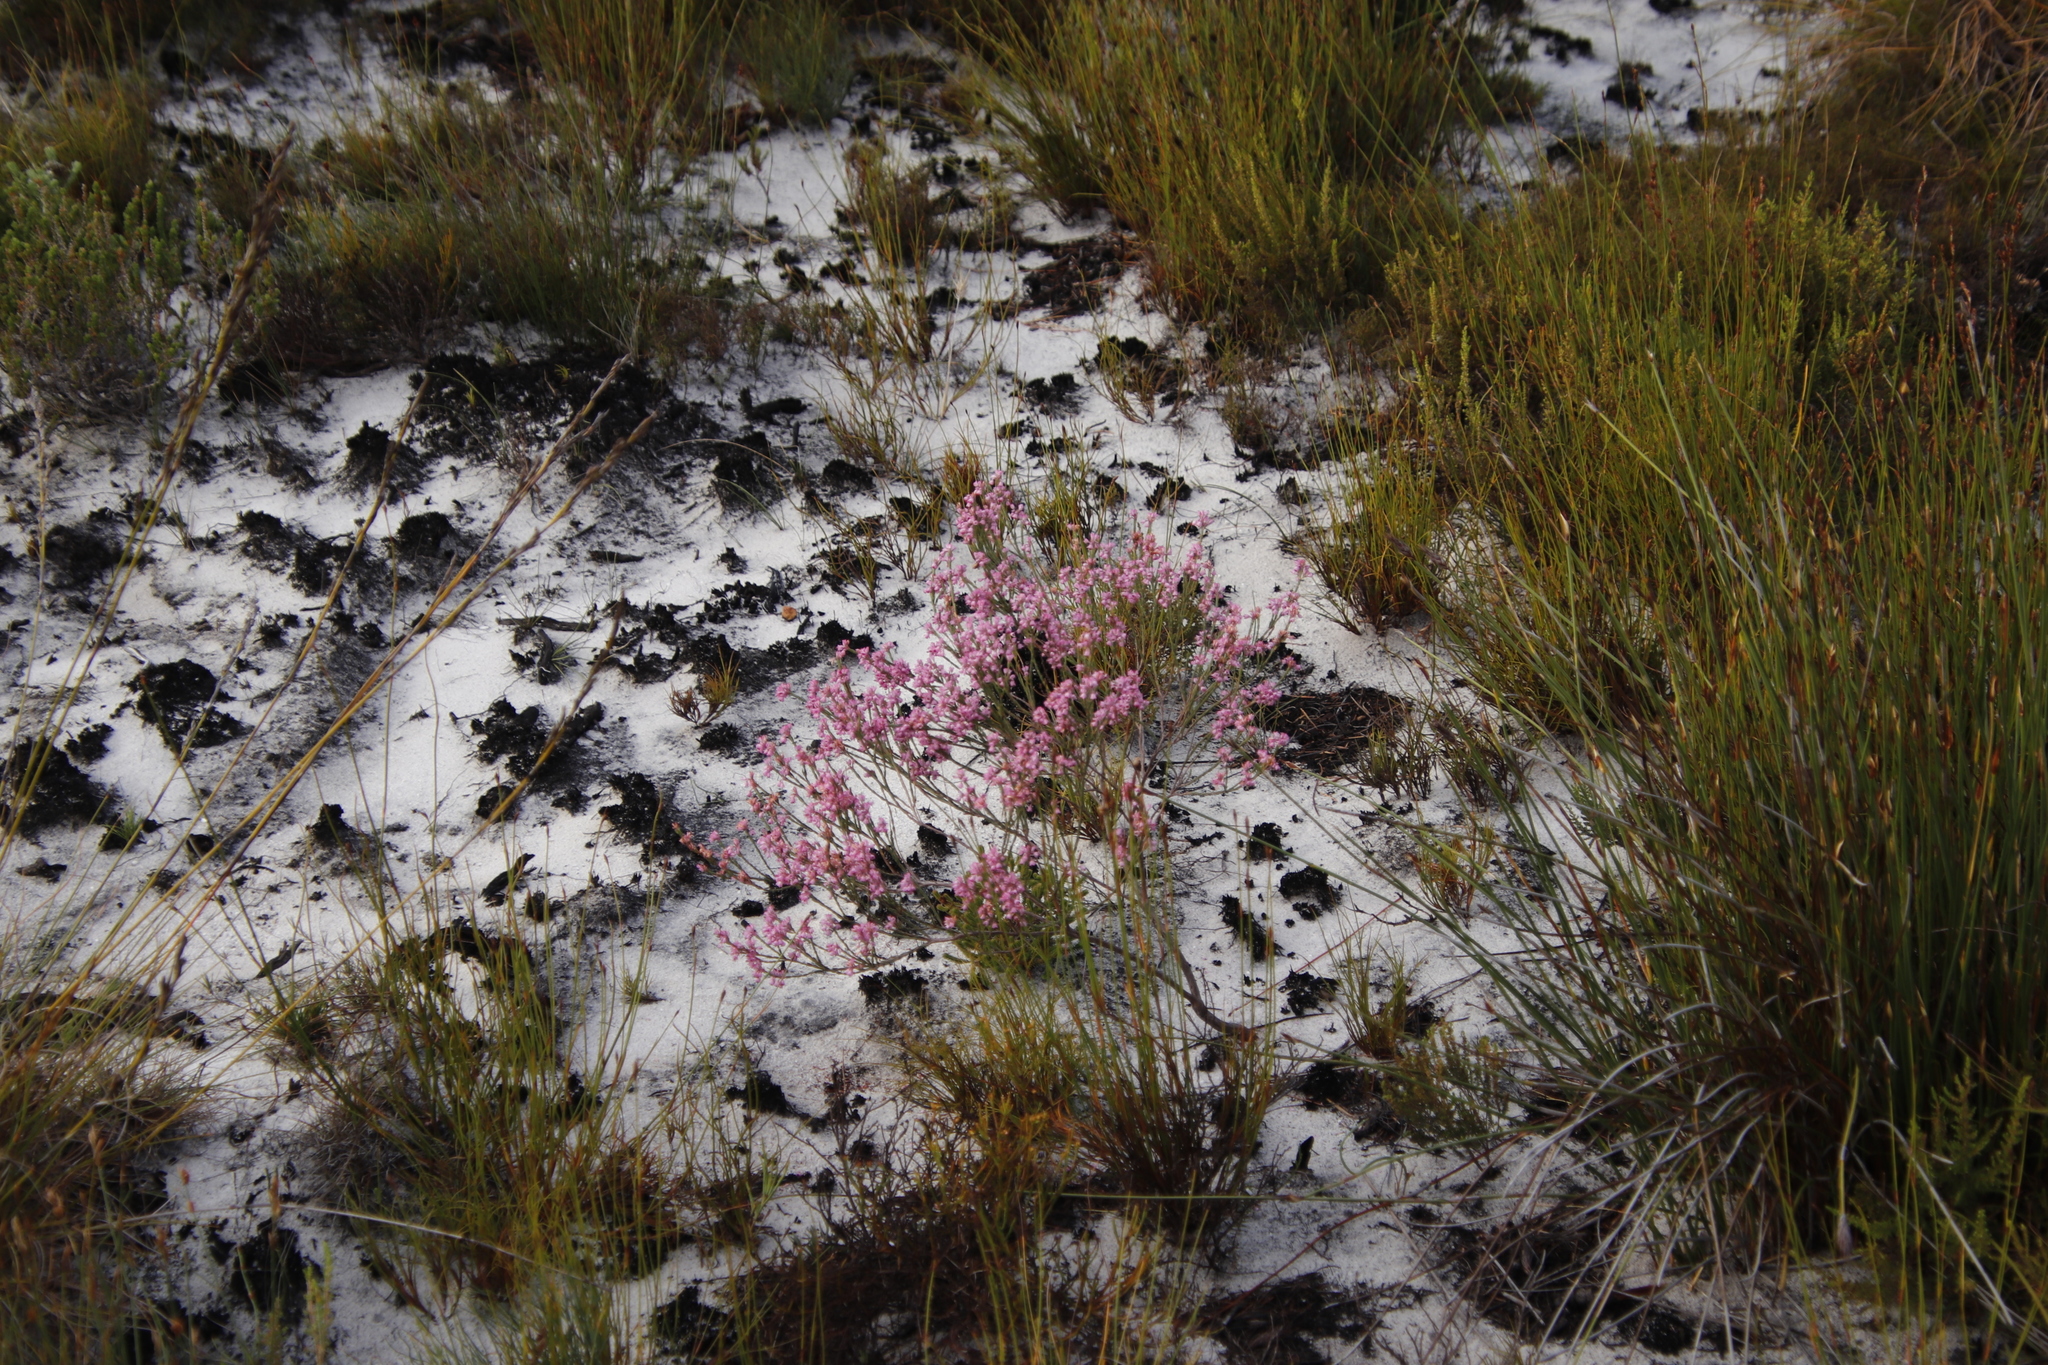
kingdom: Plantae
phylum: Tracheophyta
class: Magnoliopsida
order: Ericales
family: Ericaceae
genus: Erica
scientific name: Erica corifolia
